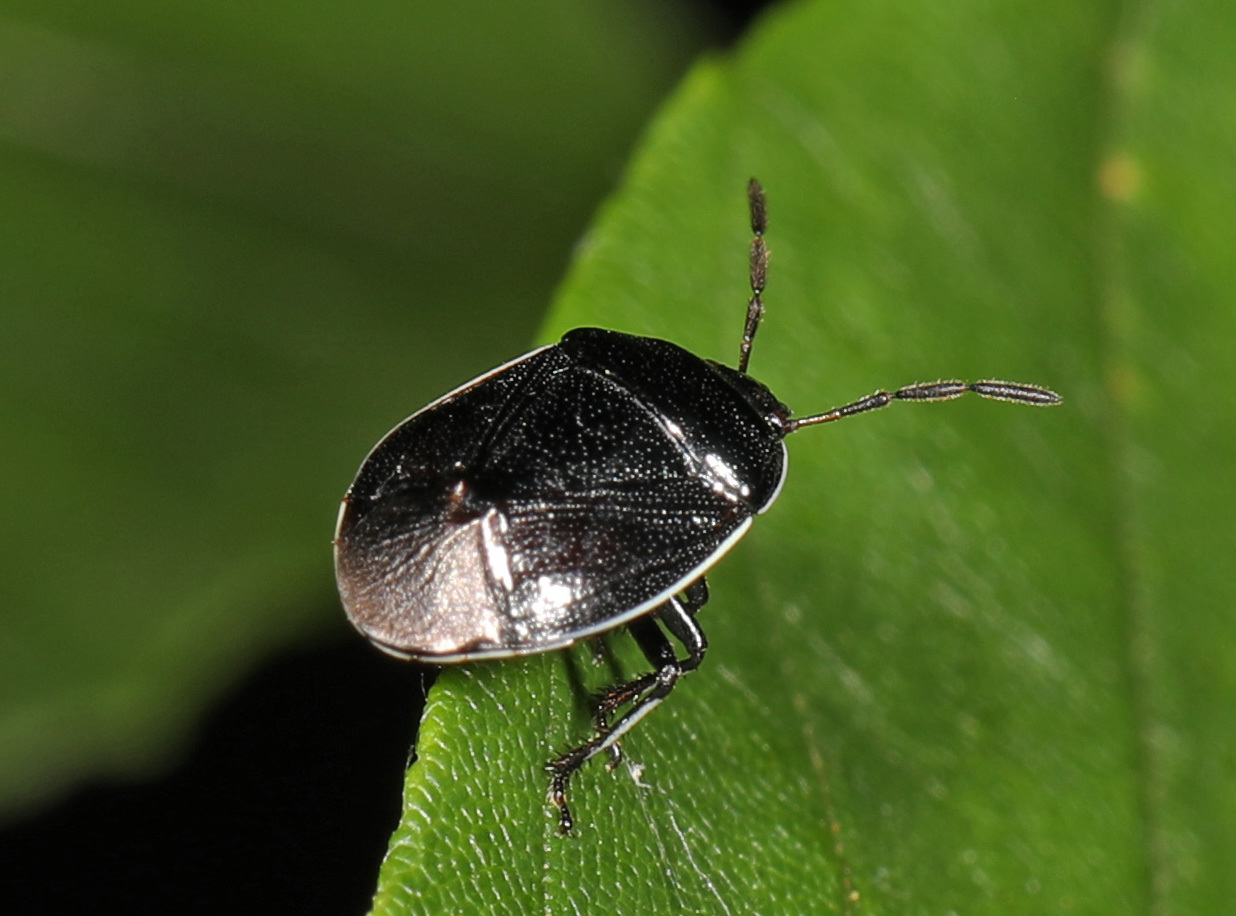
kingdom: Animalia
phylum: Arthropoda
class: Insecta
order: Hemiptera
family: Cydnidae
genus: Sehirus
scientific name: Sehirus cinctus
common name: White-margined burrower bug
